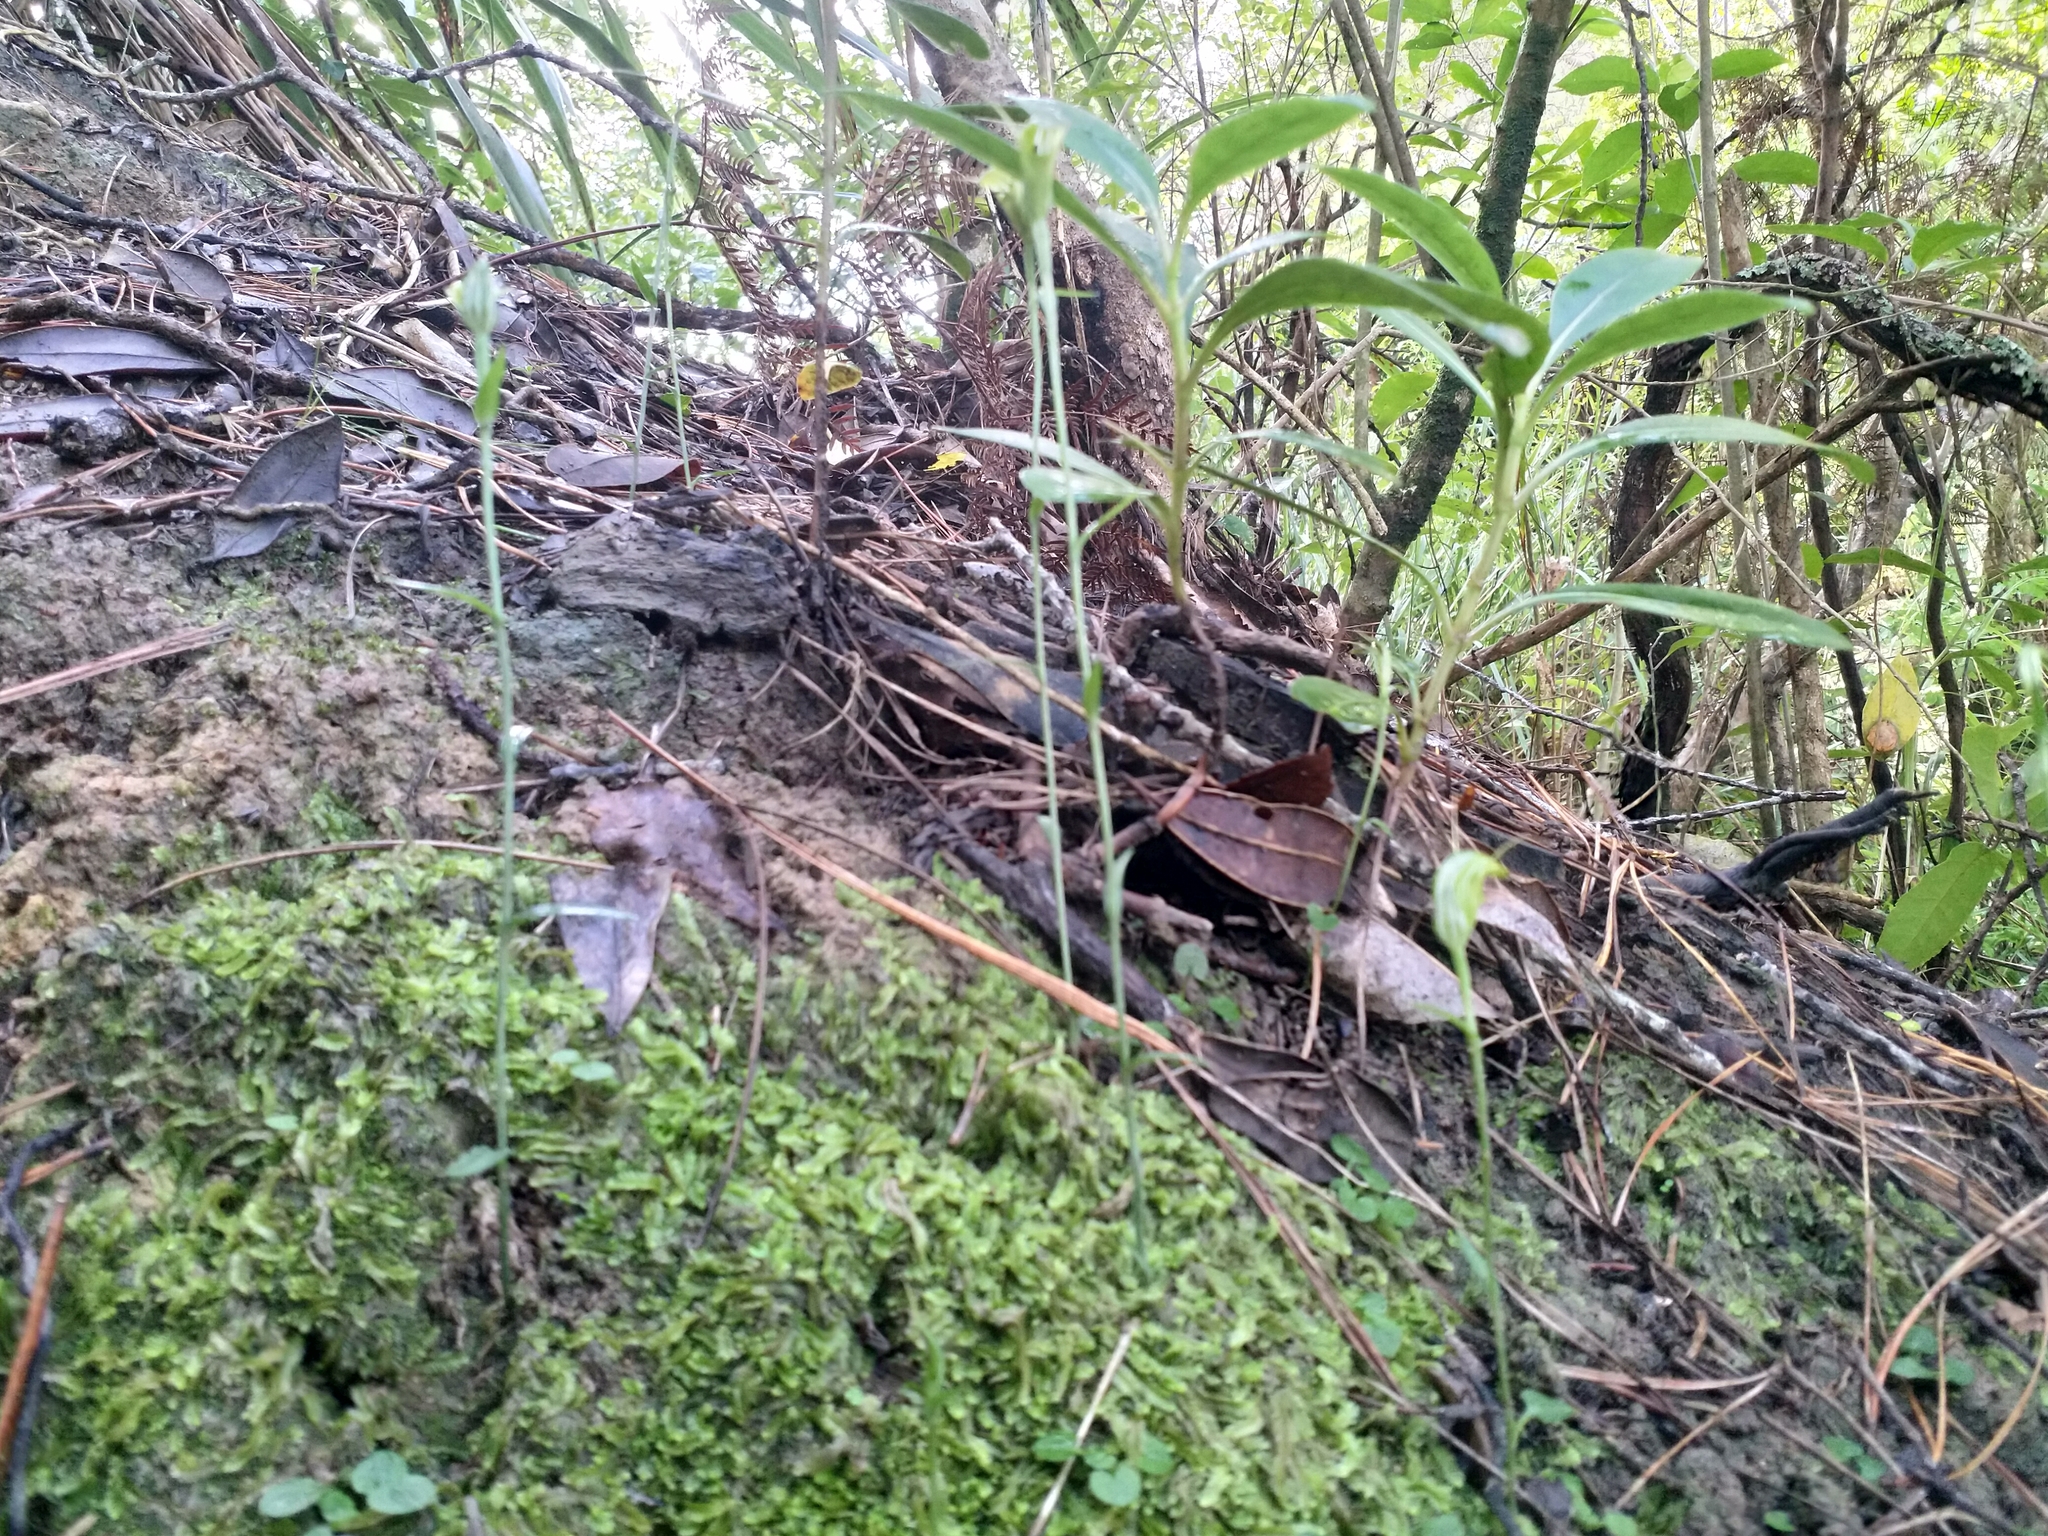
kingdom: Plantae
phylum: Tracheophyta
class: Liliopsida
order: Asparagales
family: Orchidaceae
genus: Pterostylis
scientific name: Pterostylis trullifolia
